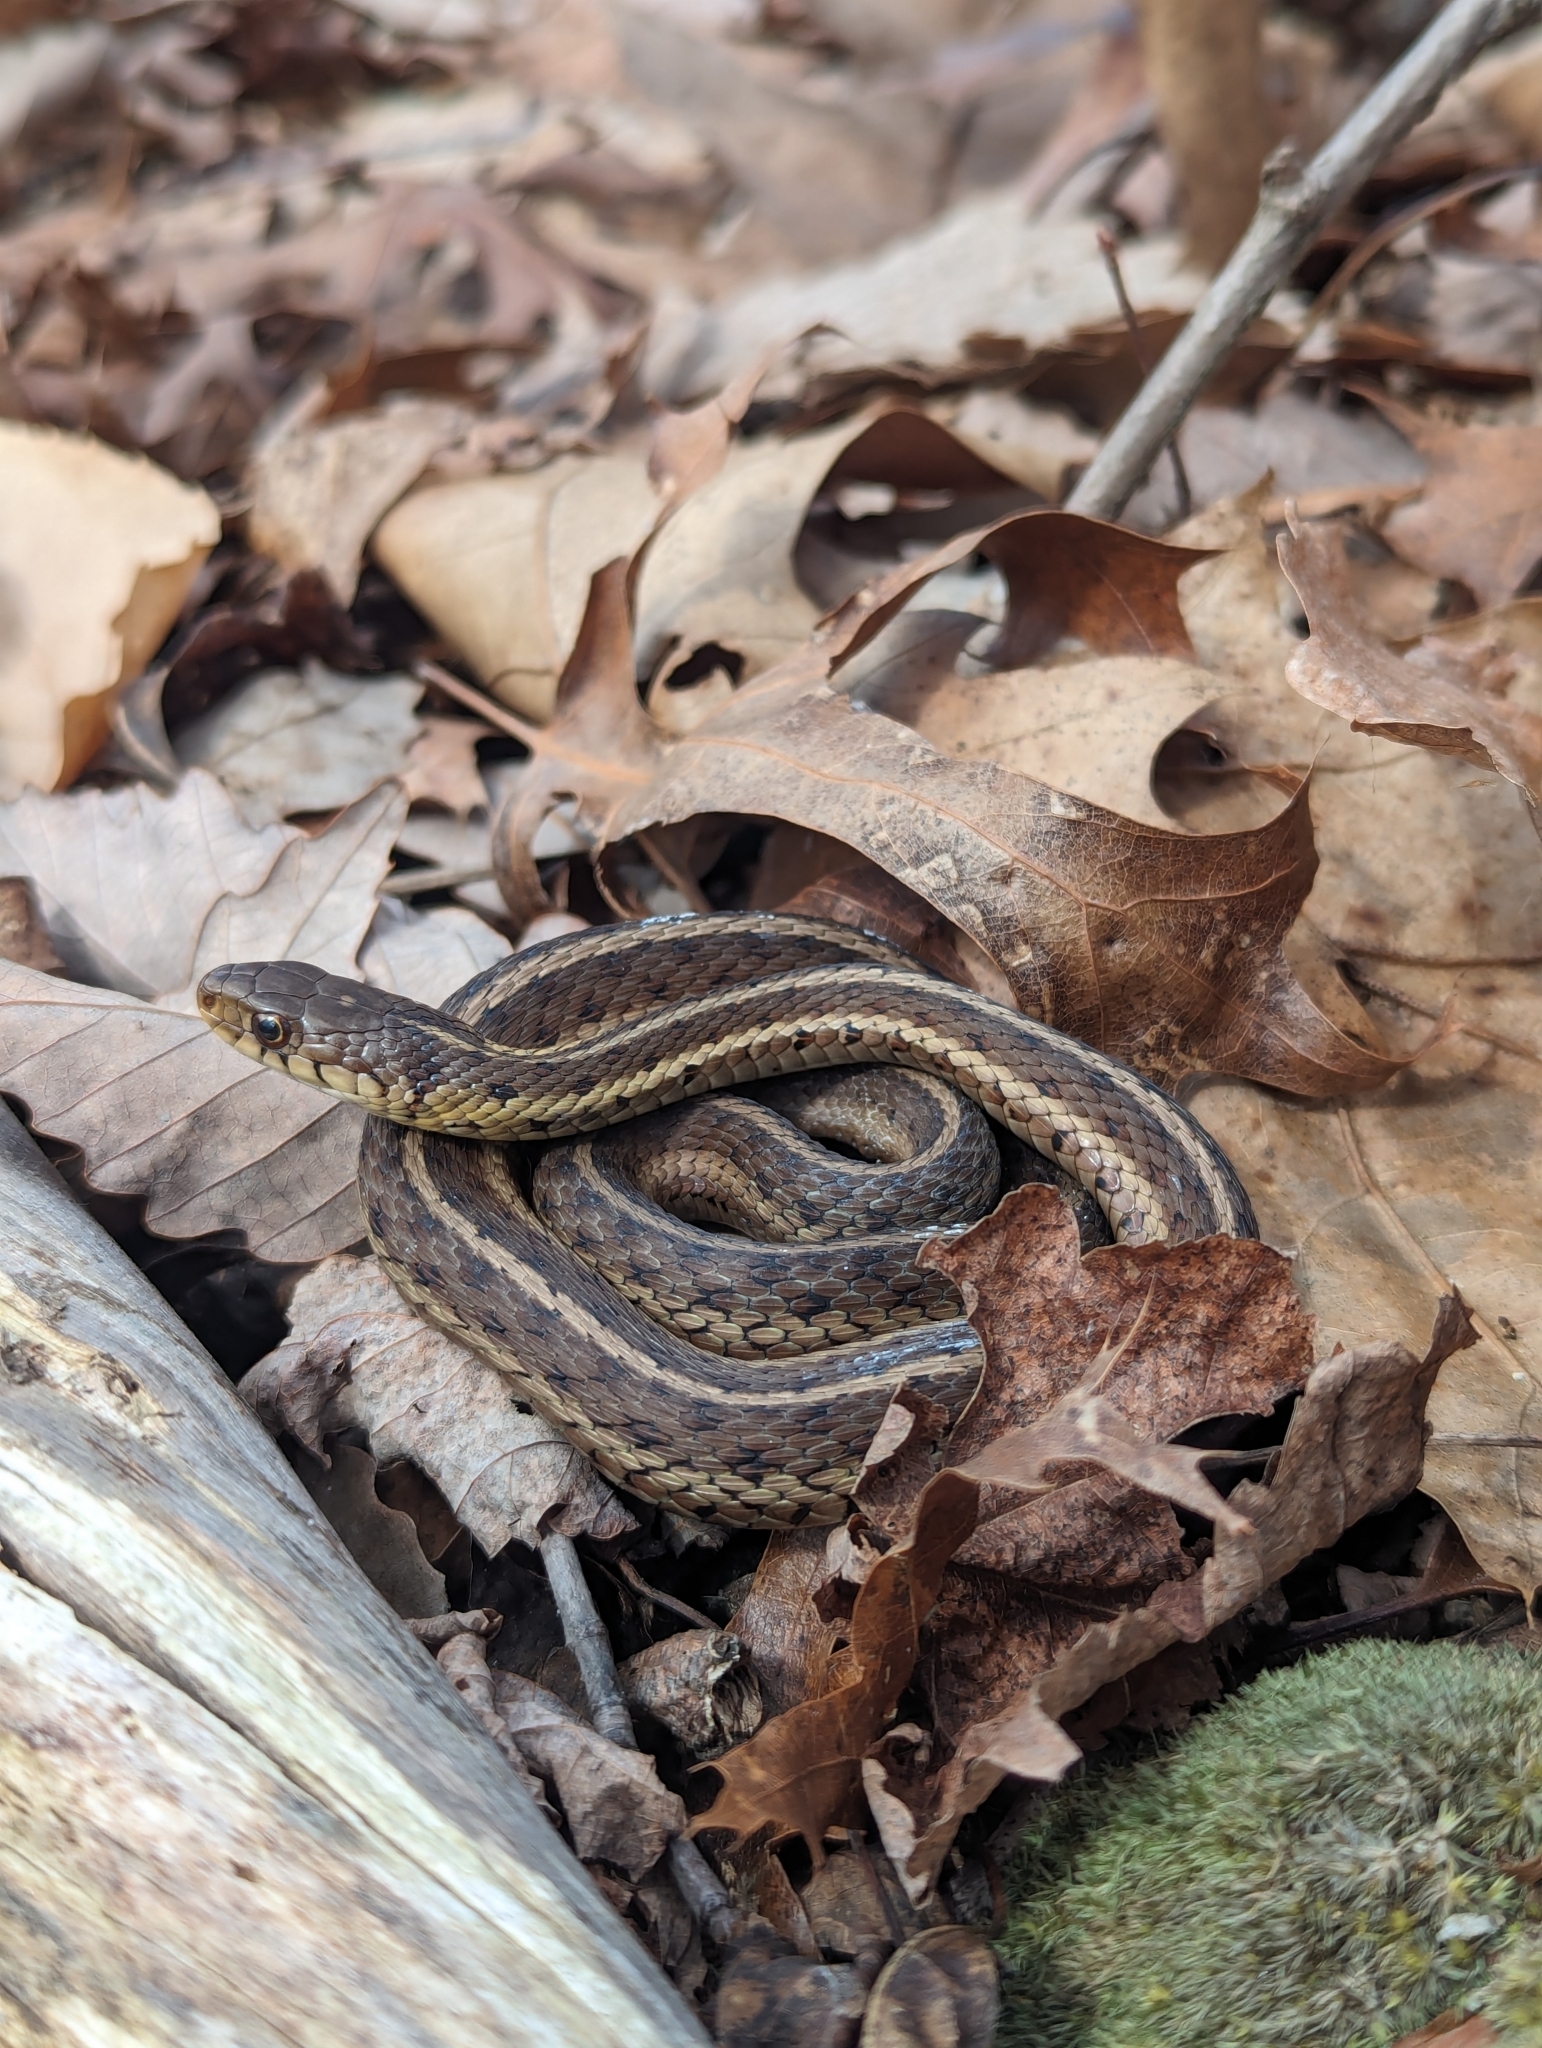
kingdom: Animalia
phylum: Chordata
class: Squamata
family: Colubridae
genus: Thamnophis
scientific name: Thamnophis sirtalis
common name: Common garter snake
